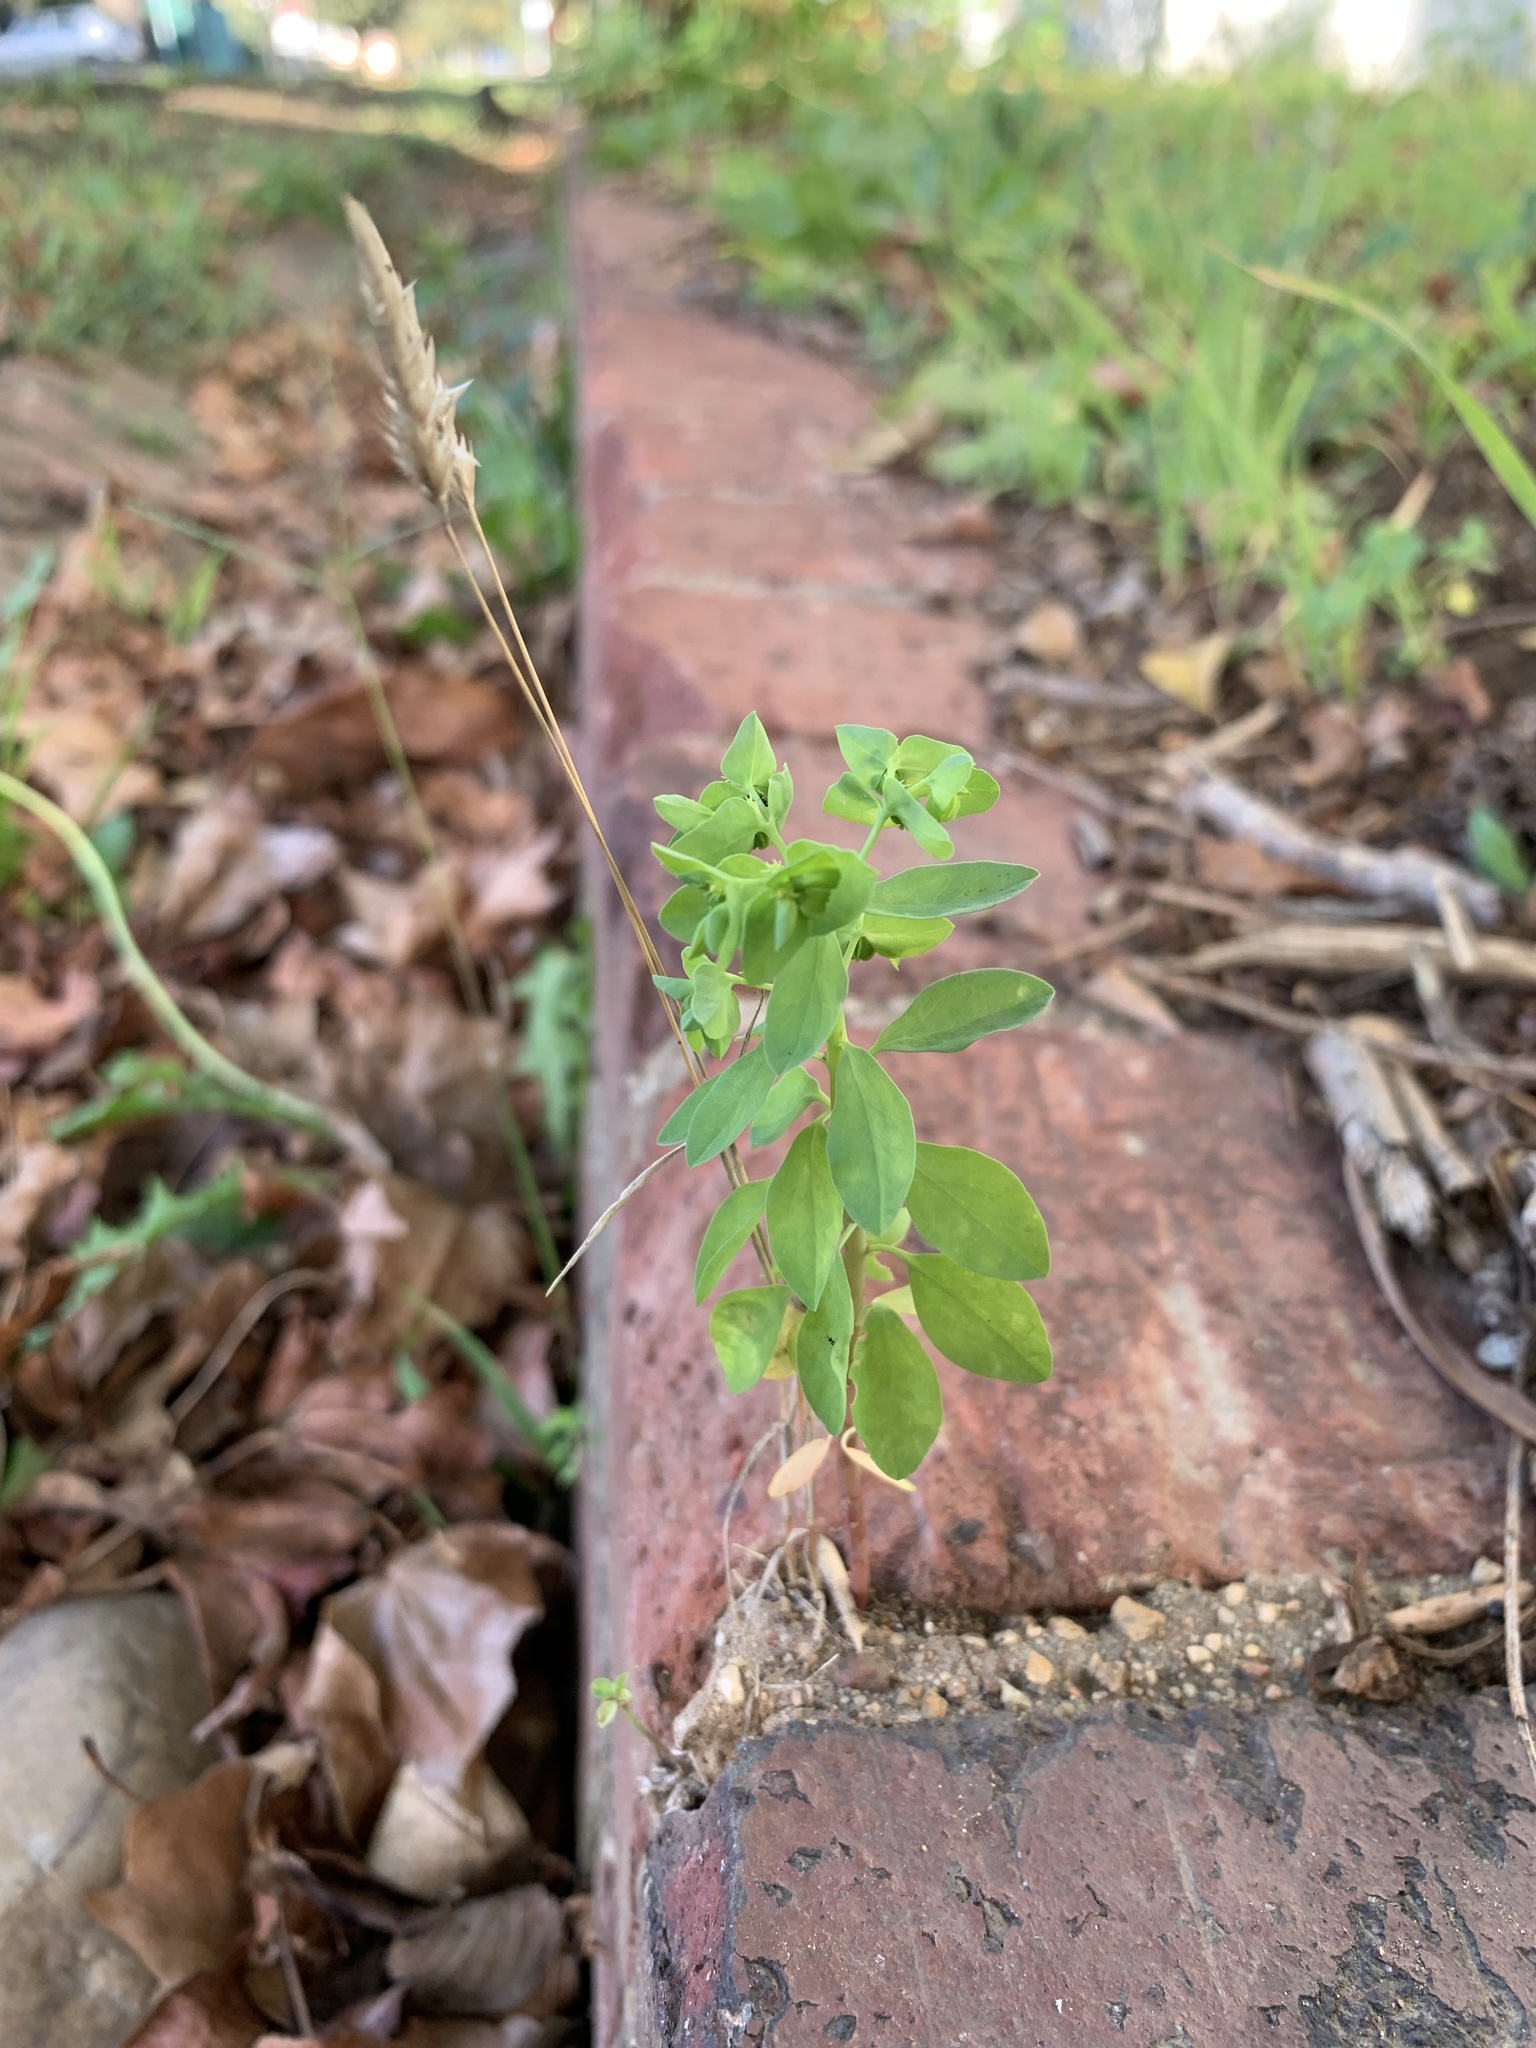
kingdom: Plantae
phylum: Tracheophyta
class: Magnoliopsida
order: Malpighiales
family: Euphorbiaceae
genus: Euphorbia
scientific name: Euphorbia peplus
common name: Petty spurge
